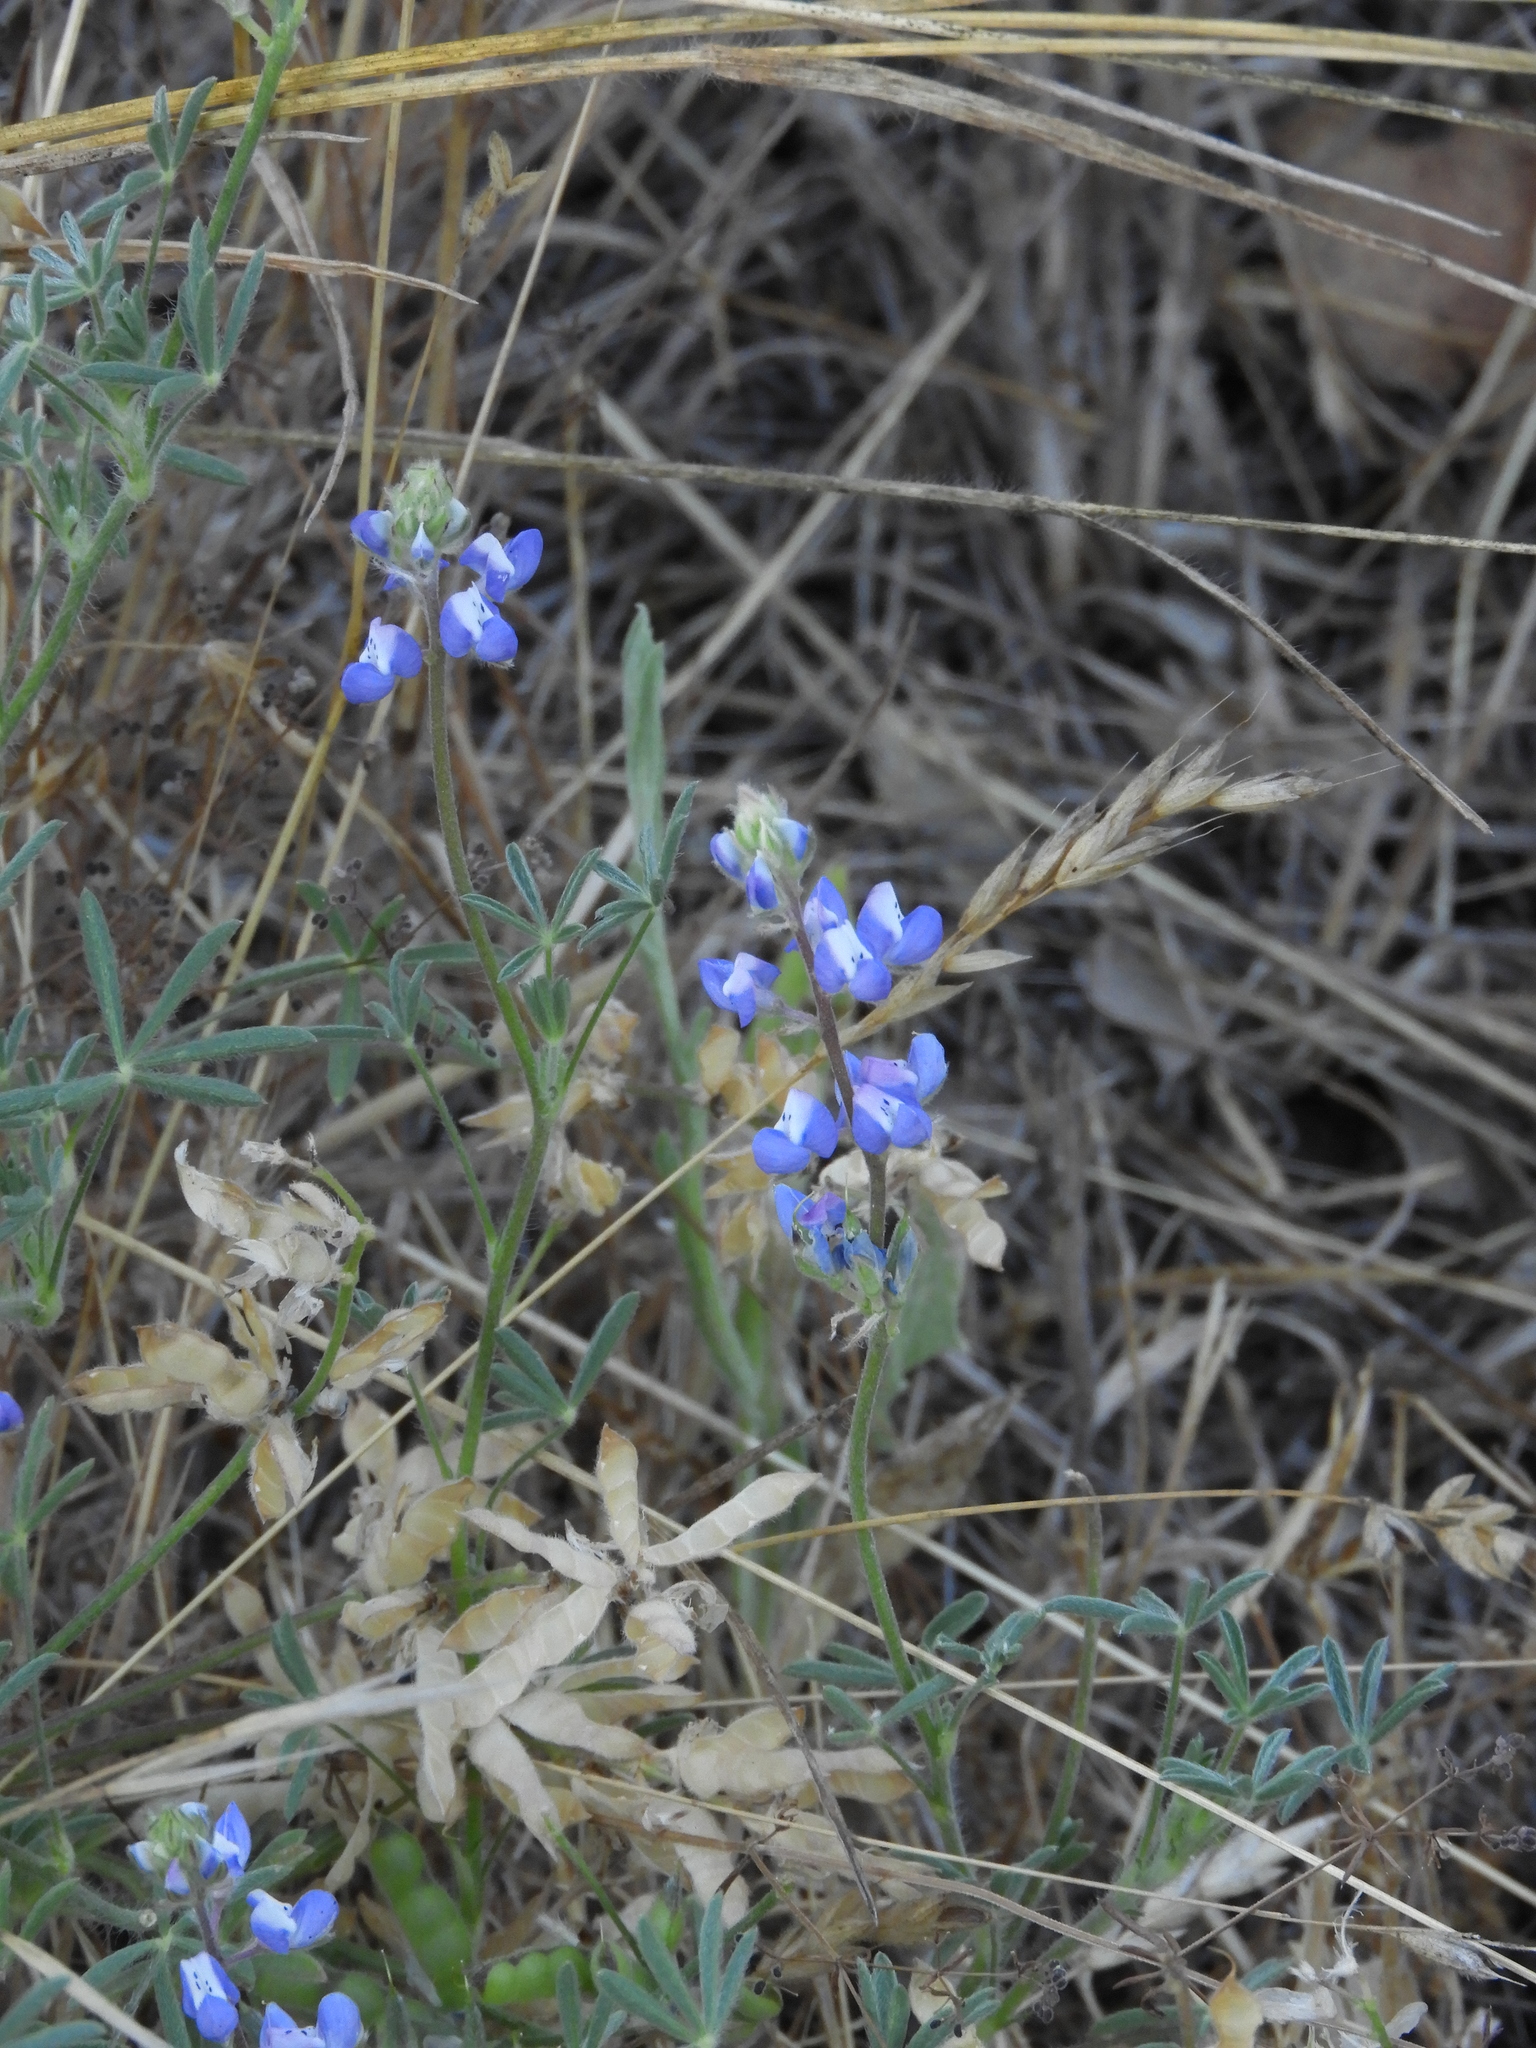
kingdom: Plantae
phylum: Tracheophyta
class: Magnoliopsida
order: Fabales
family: Fabaceae
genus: Lupinus
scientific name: Lupinus bicolor
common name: Miniature lupine
